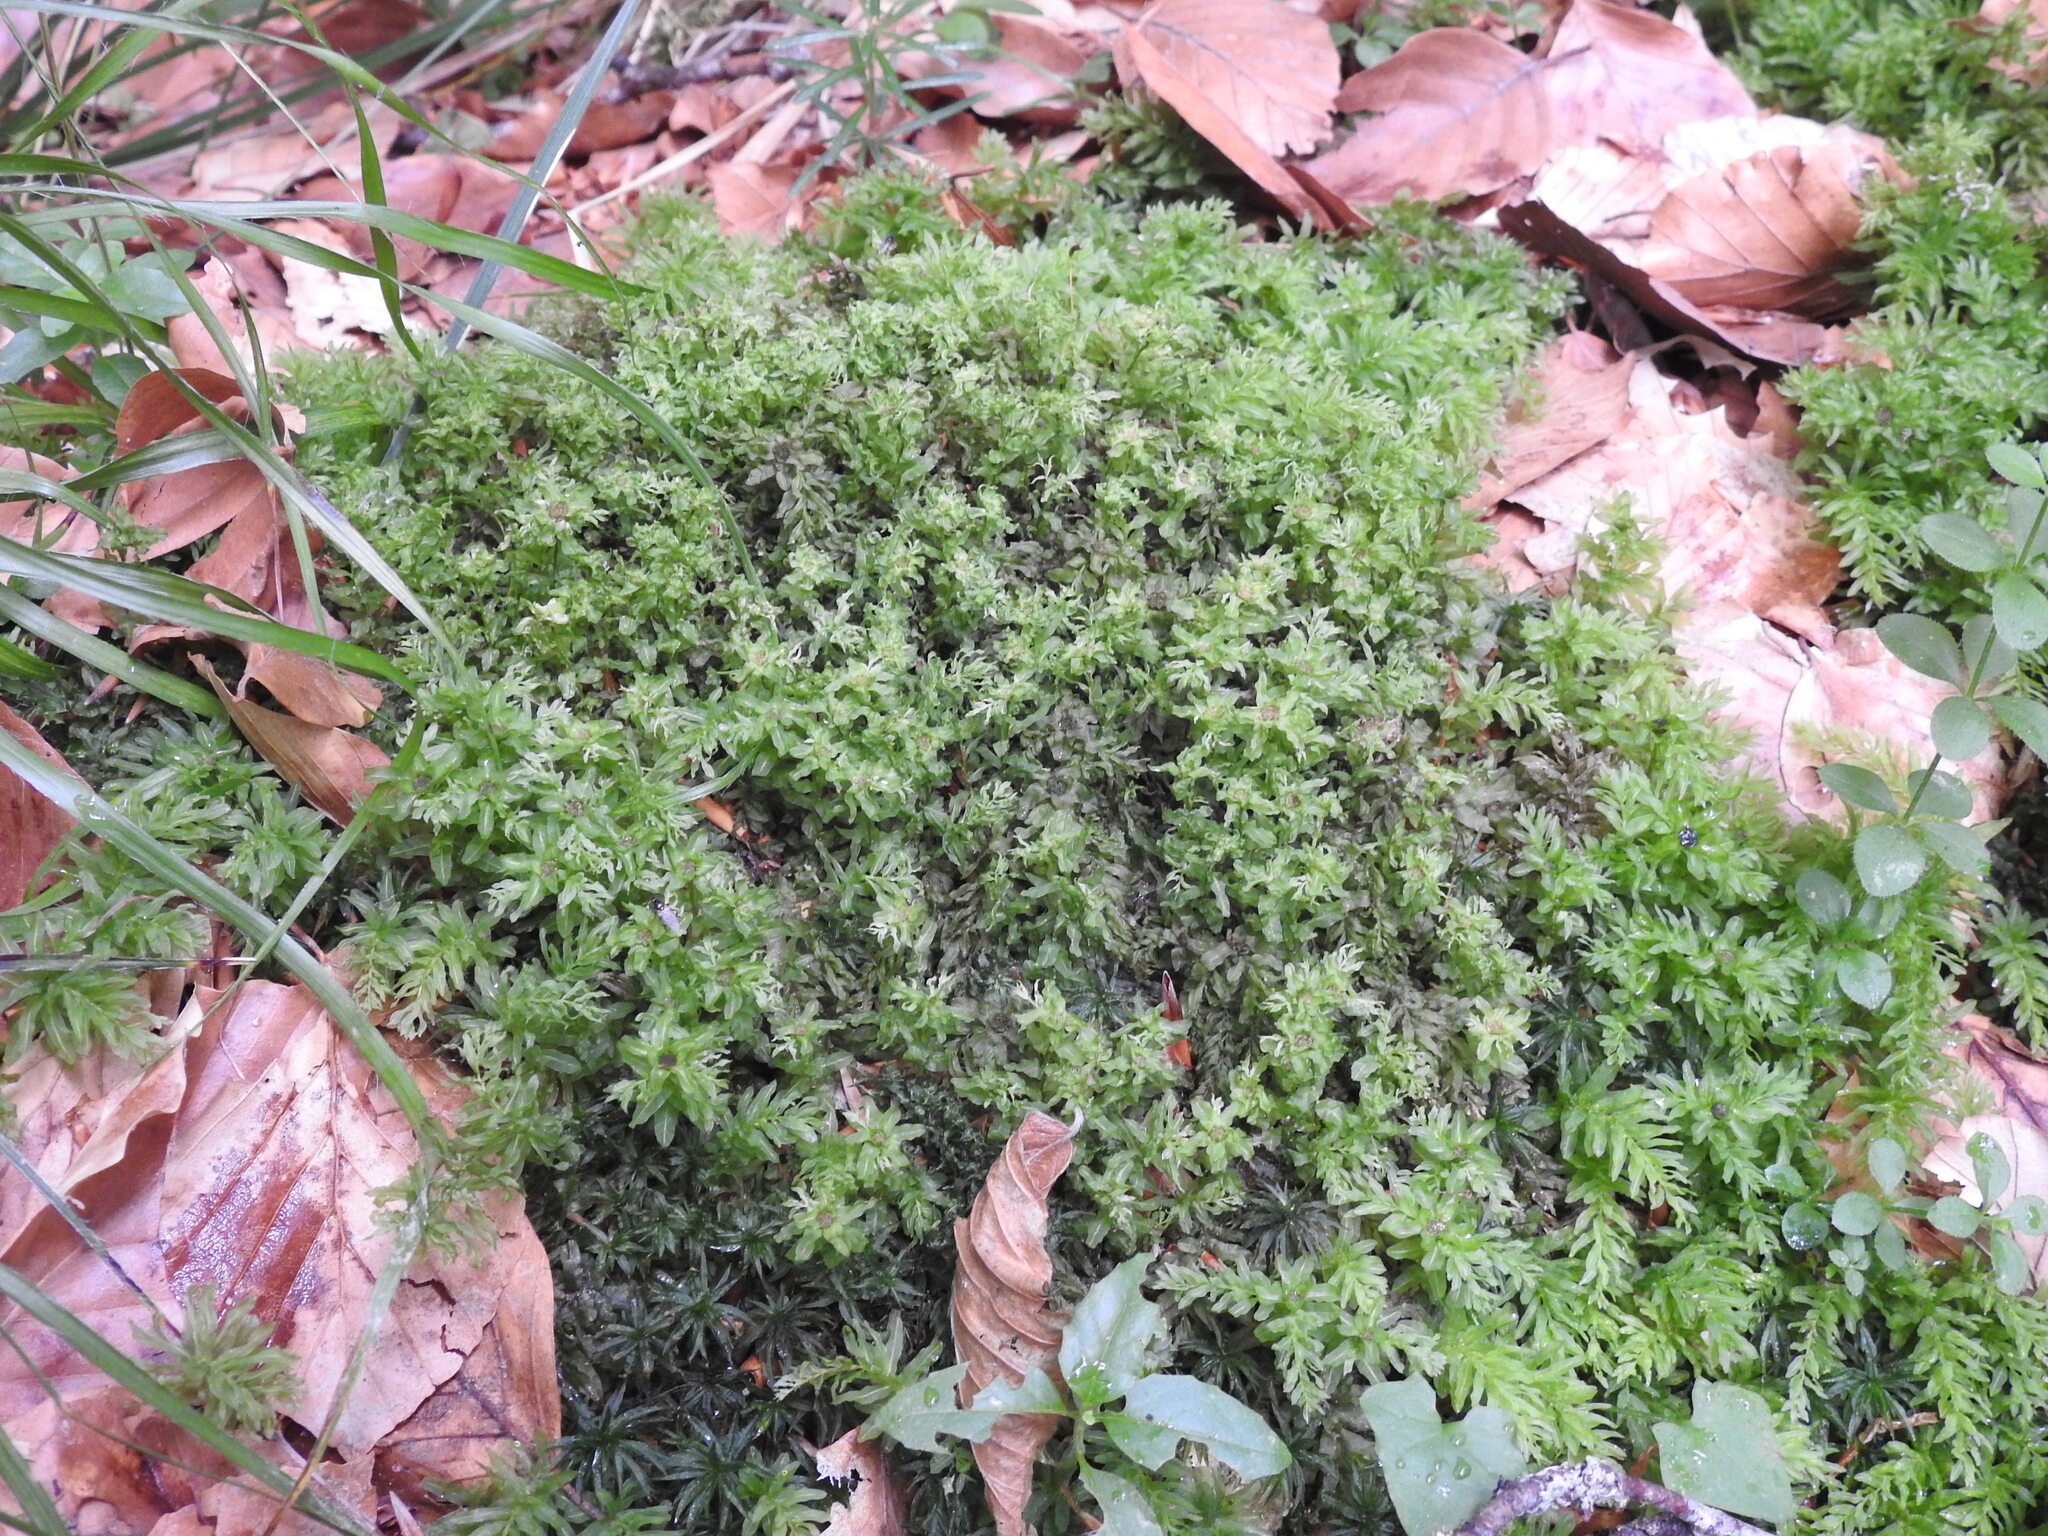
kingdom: Plantae
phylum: Bryophyta
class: Bryopsida
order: Bryales
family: Mniaceae
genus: Plagiomnium
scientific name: Plagiomnium undulatum
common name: Hart's-tongue thyme-moss
